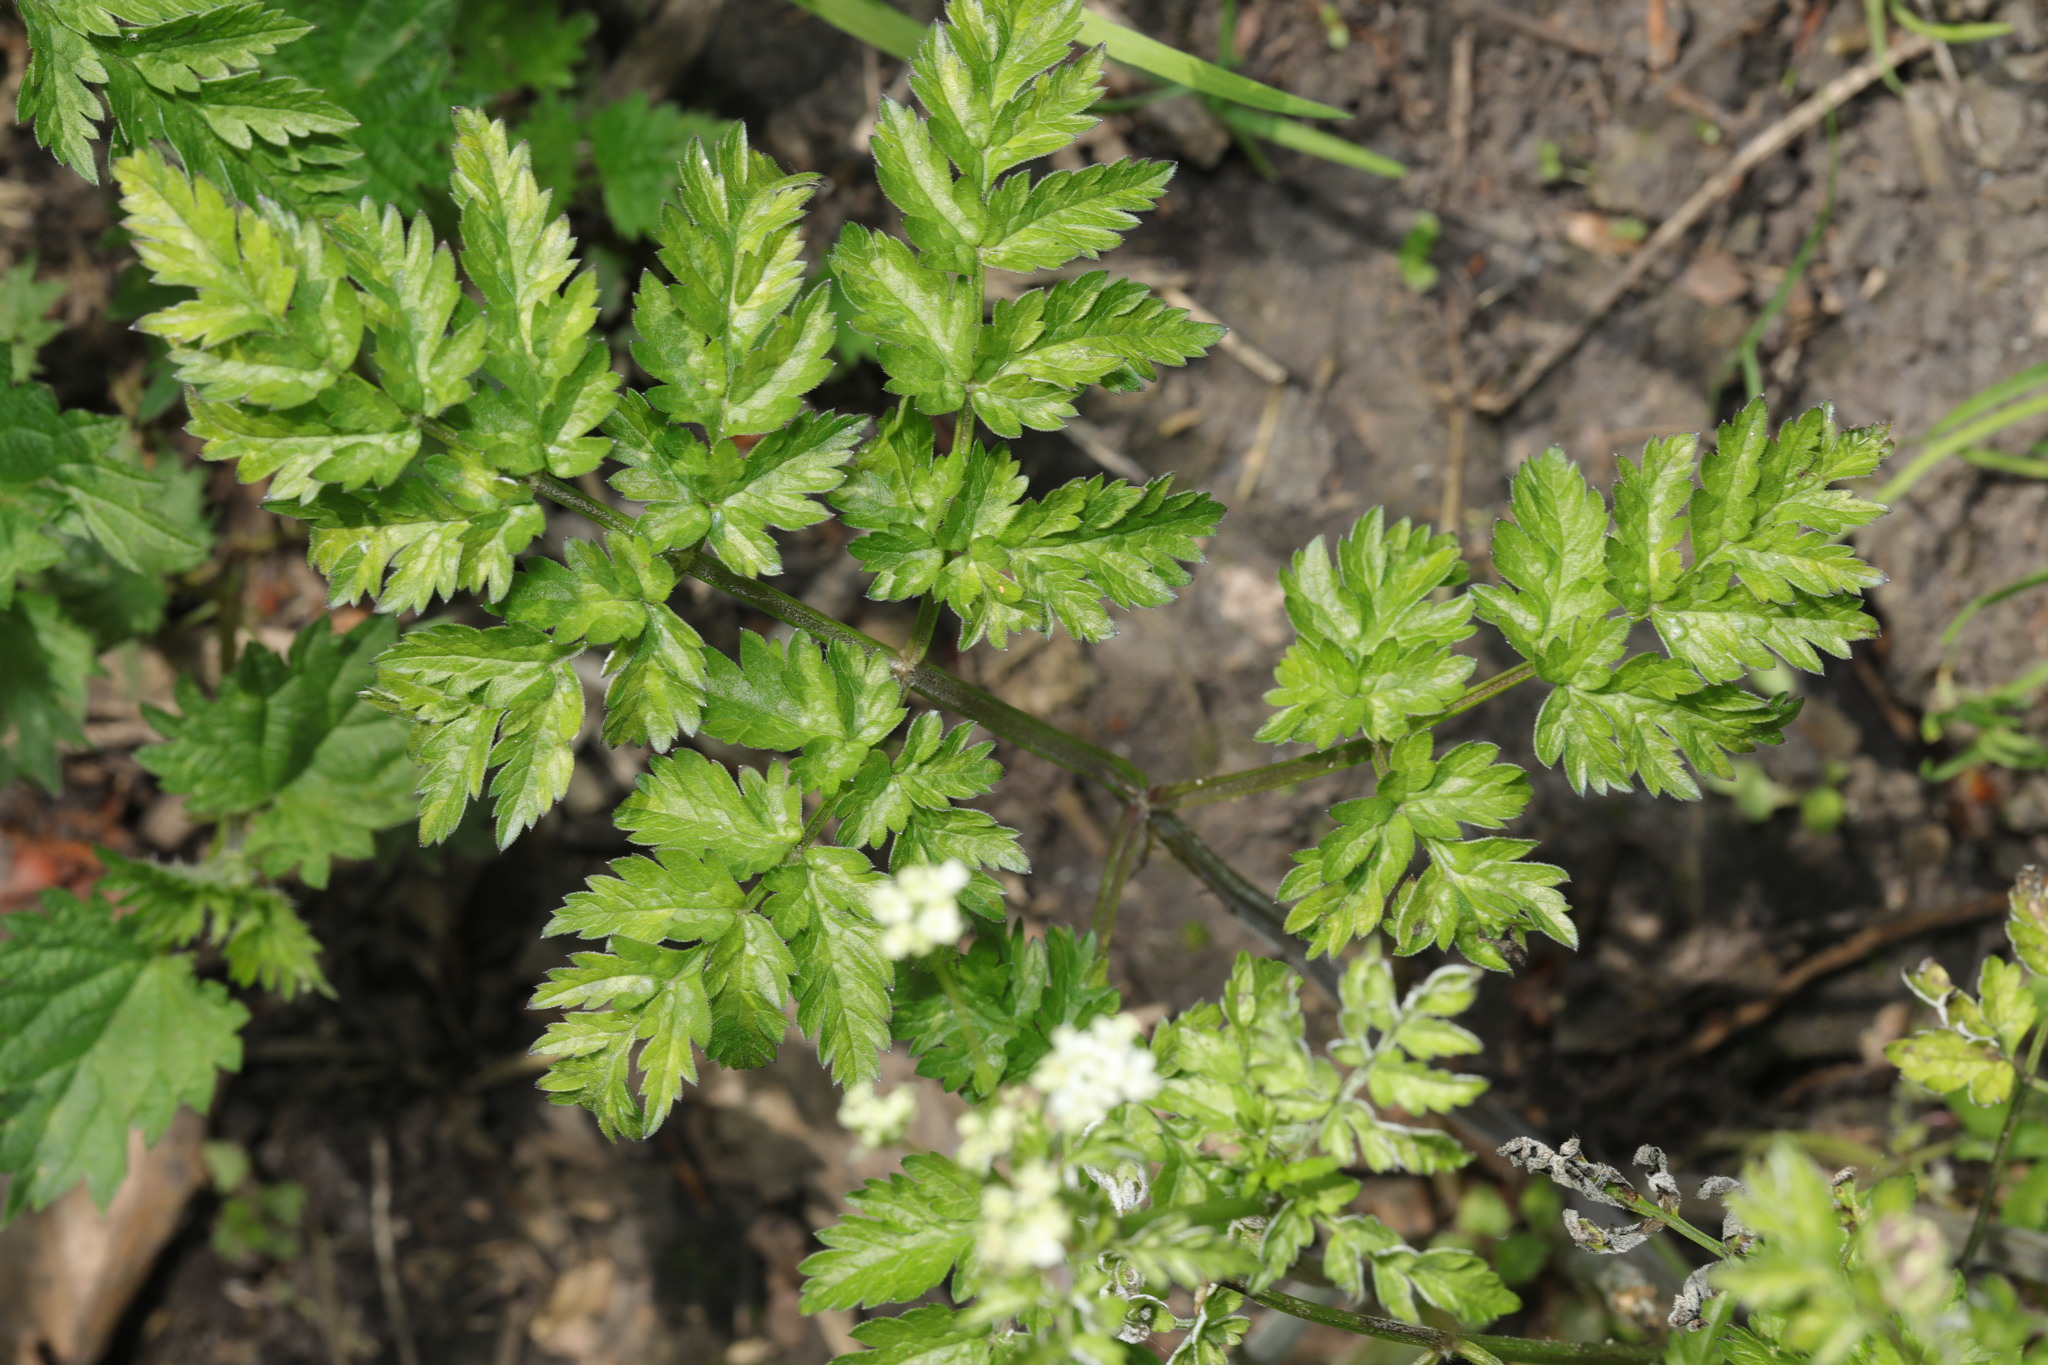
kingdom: Plantae
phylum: Tracheophyta
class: Magnoliopsida
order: Apiales
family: Apiaceae
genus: Anthriscus
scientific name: Anthriscus sylvestris
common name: Cow parsley
